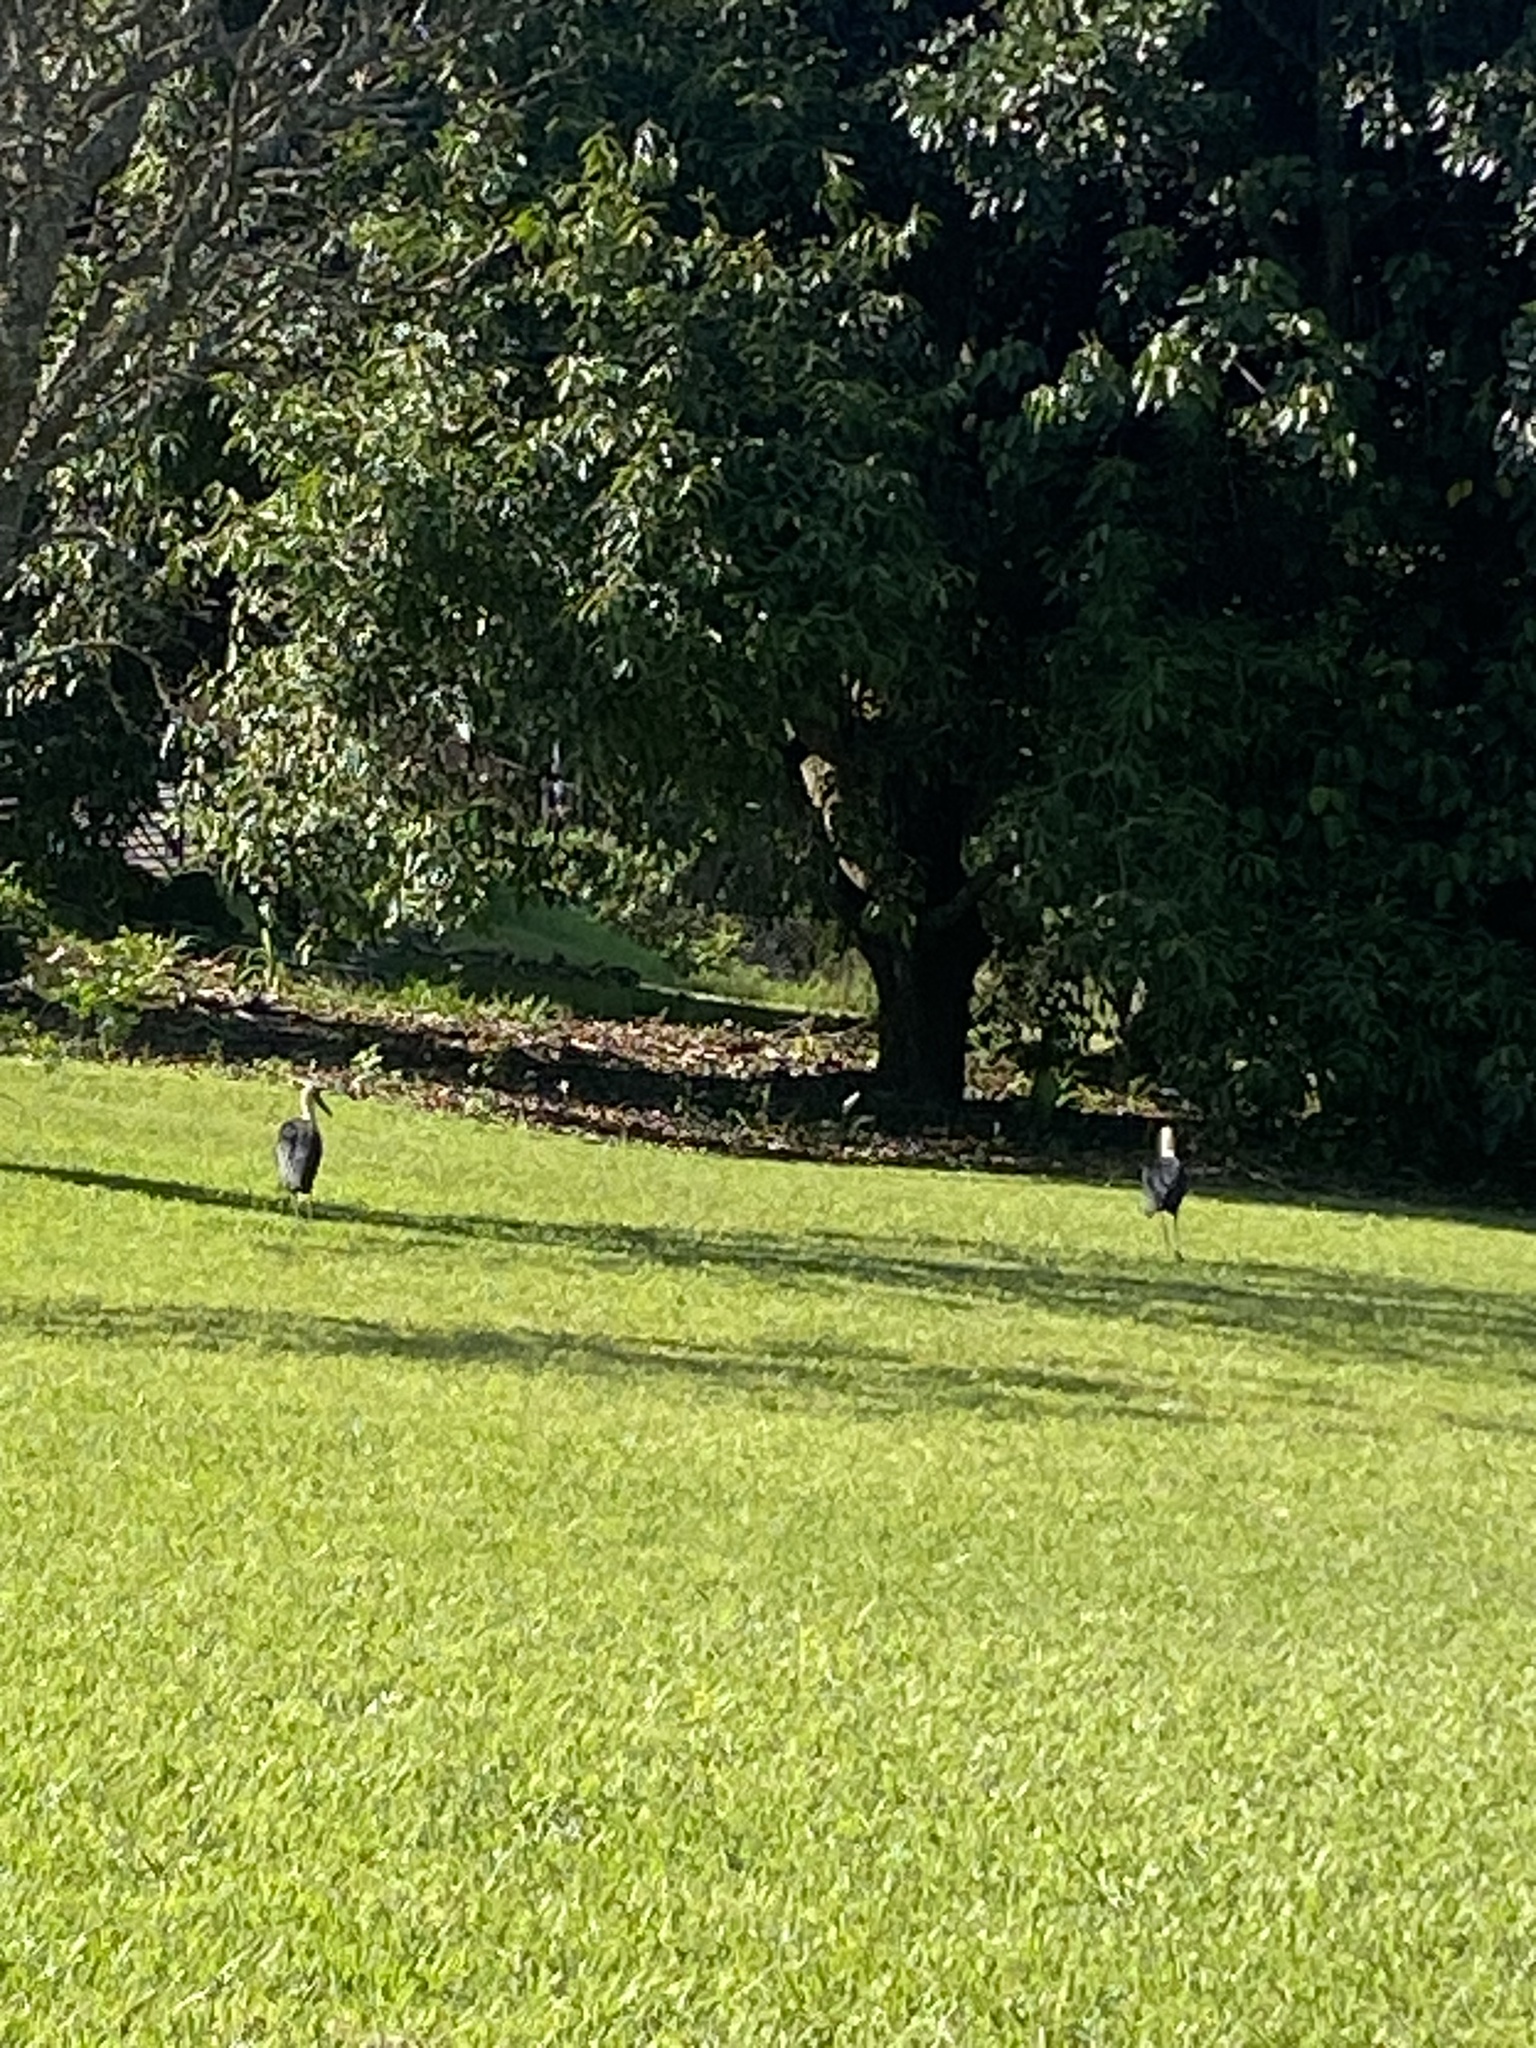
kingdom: Animalia
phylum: Chordata
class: Aves
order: Ciconiiformes
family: Ciconiidae
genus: Ciconia
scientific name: Ciconia microscelis
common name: African woollyneck
